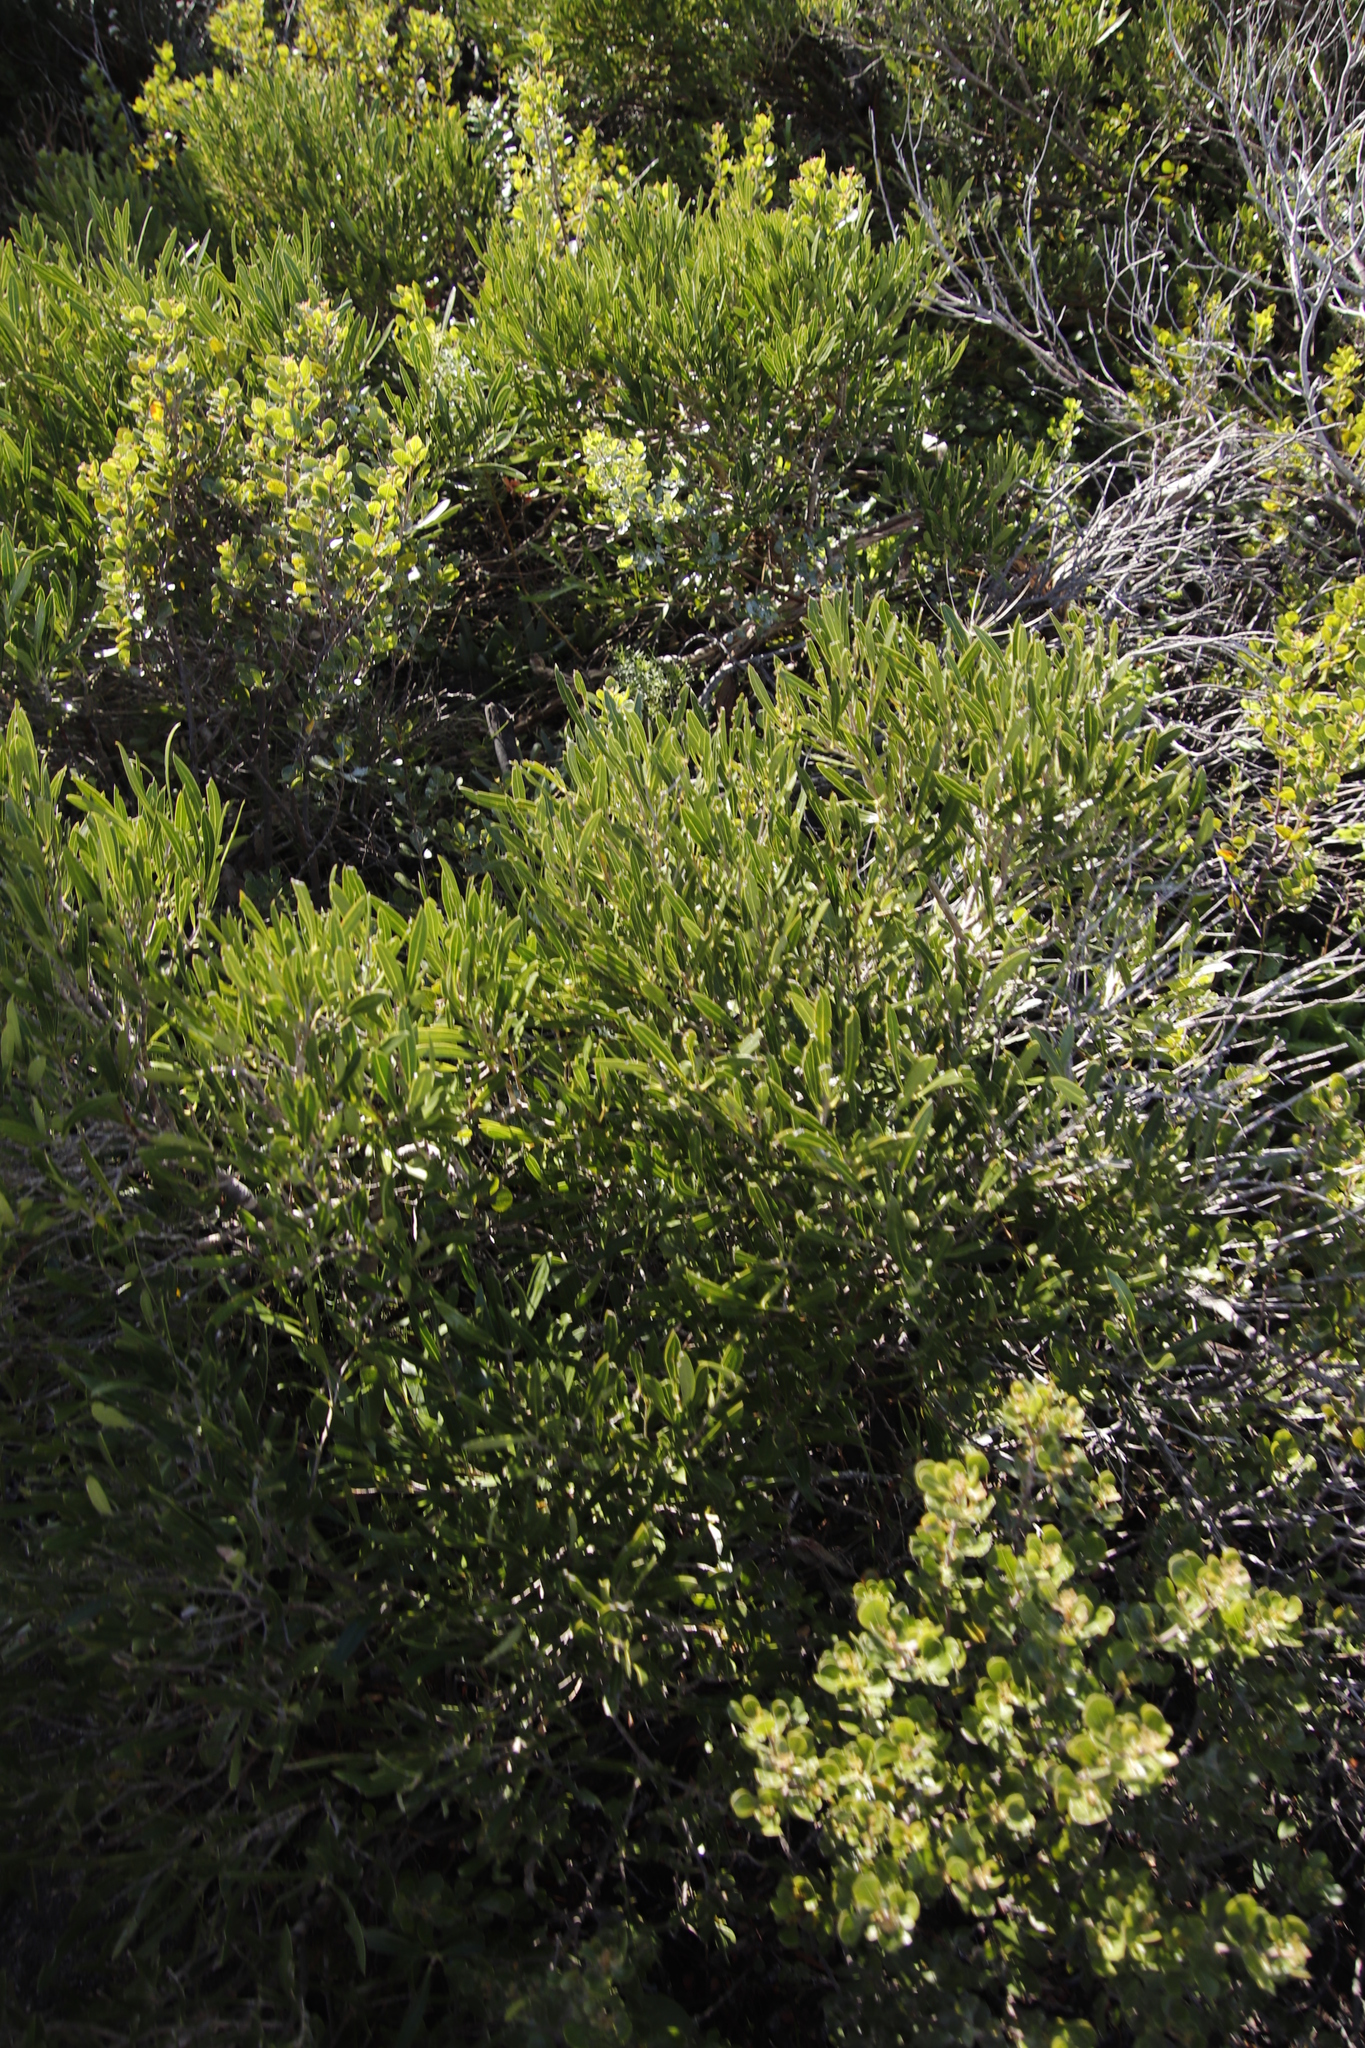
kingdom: Plantae
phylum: Tracheophyta
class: Magnoliopsida
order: Lamiales
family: Oleaceae
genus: Olea
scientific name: Olea exasperata
